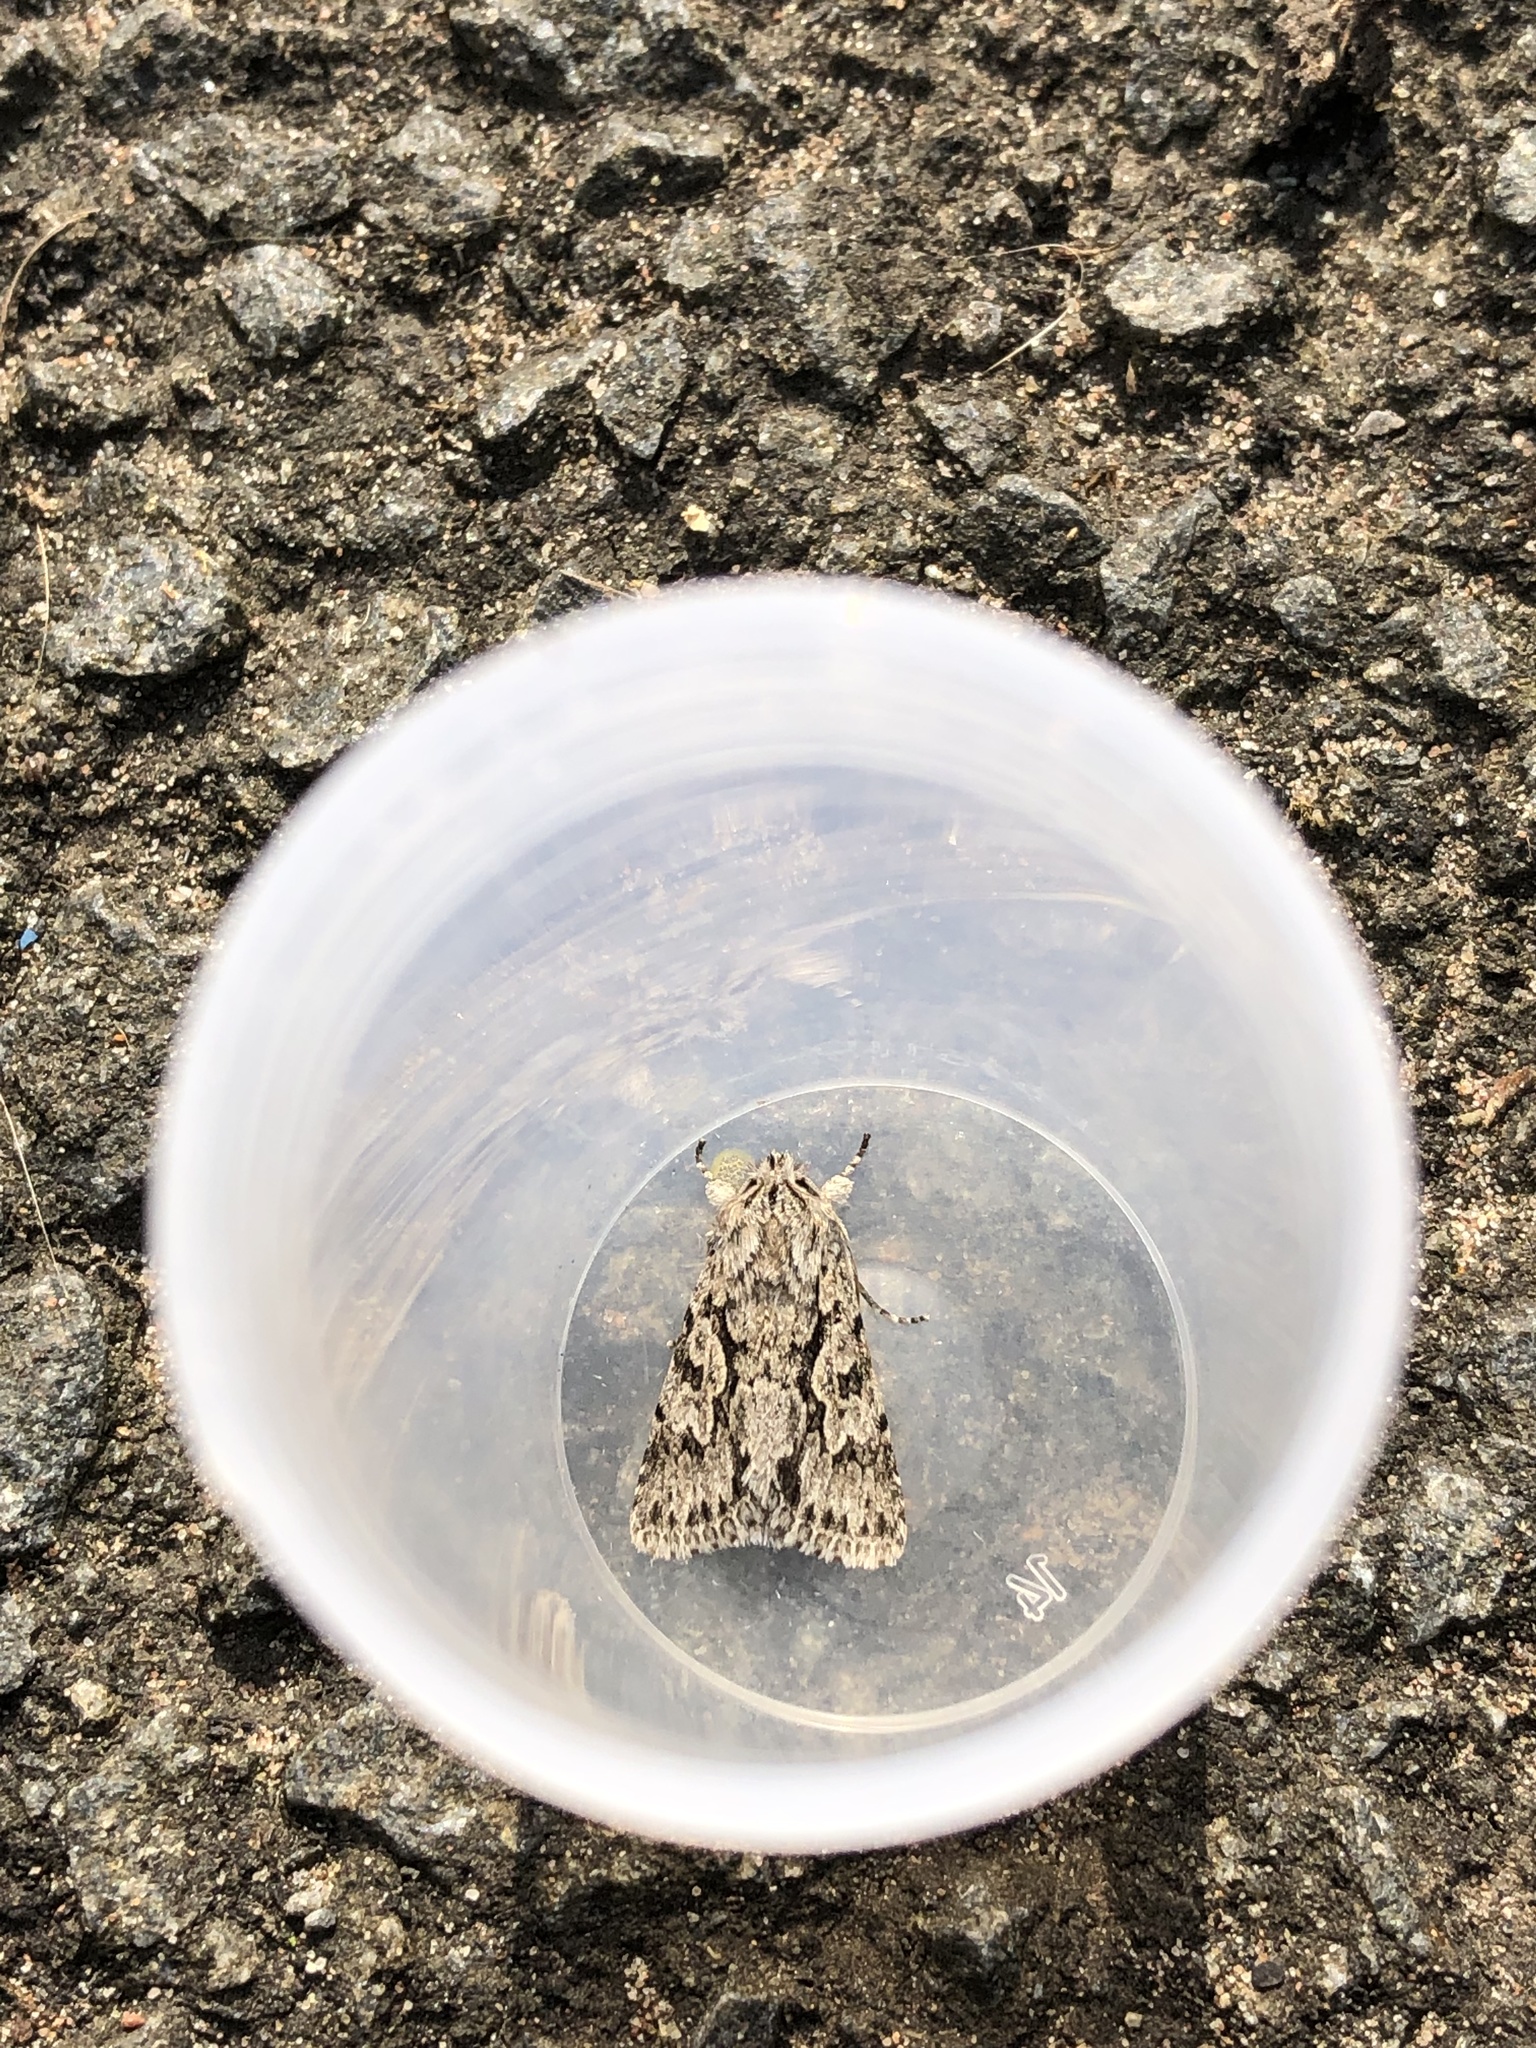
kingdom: Animalia
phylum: Arthropoda
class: Insecta
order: Lepidoptera
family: Noctuidae
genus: Xylocampa
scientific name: Xylocampa areola
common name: Early grey
